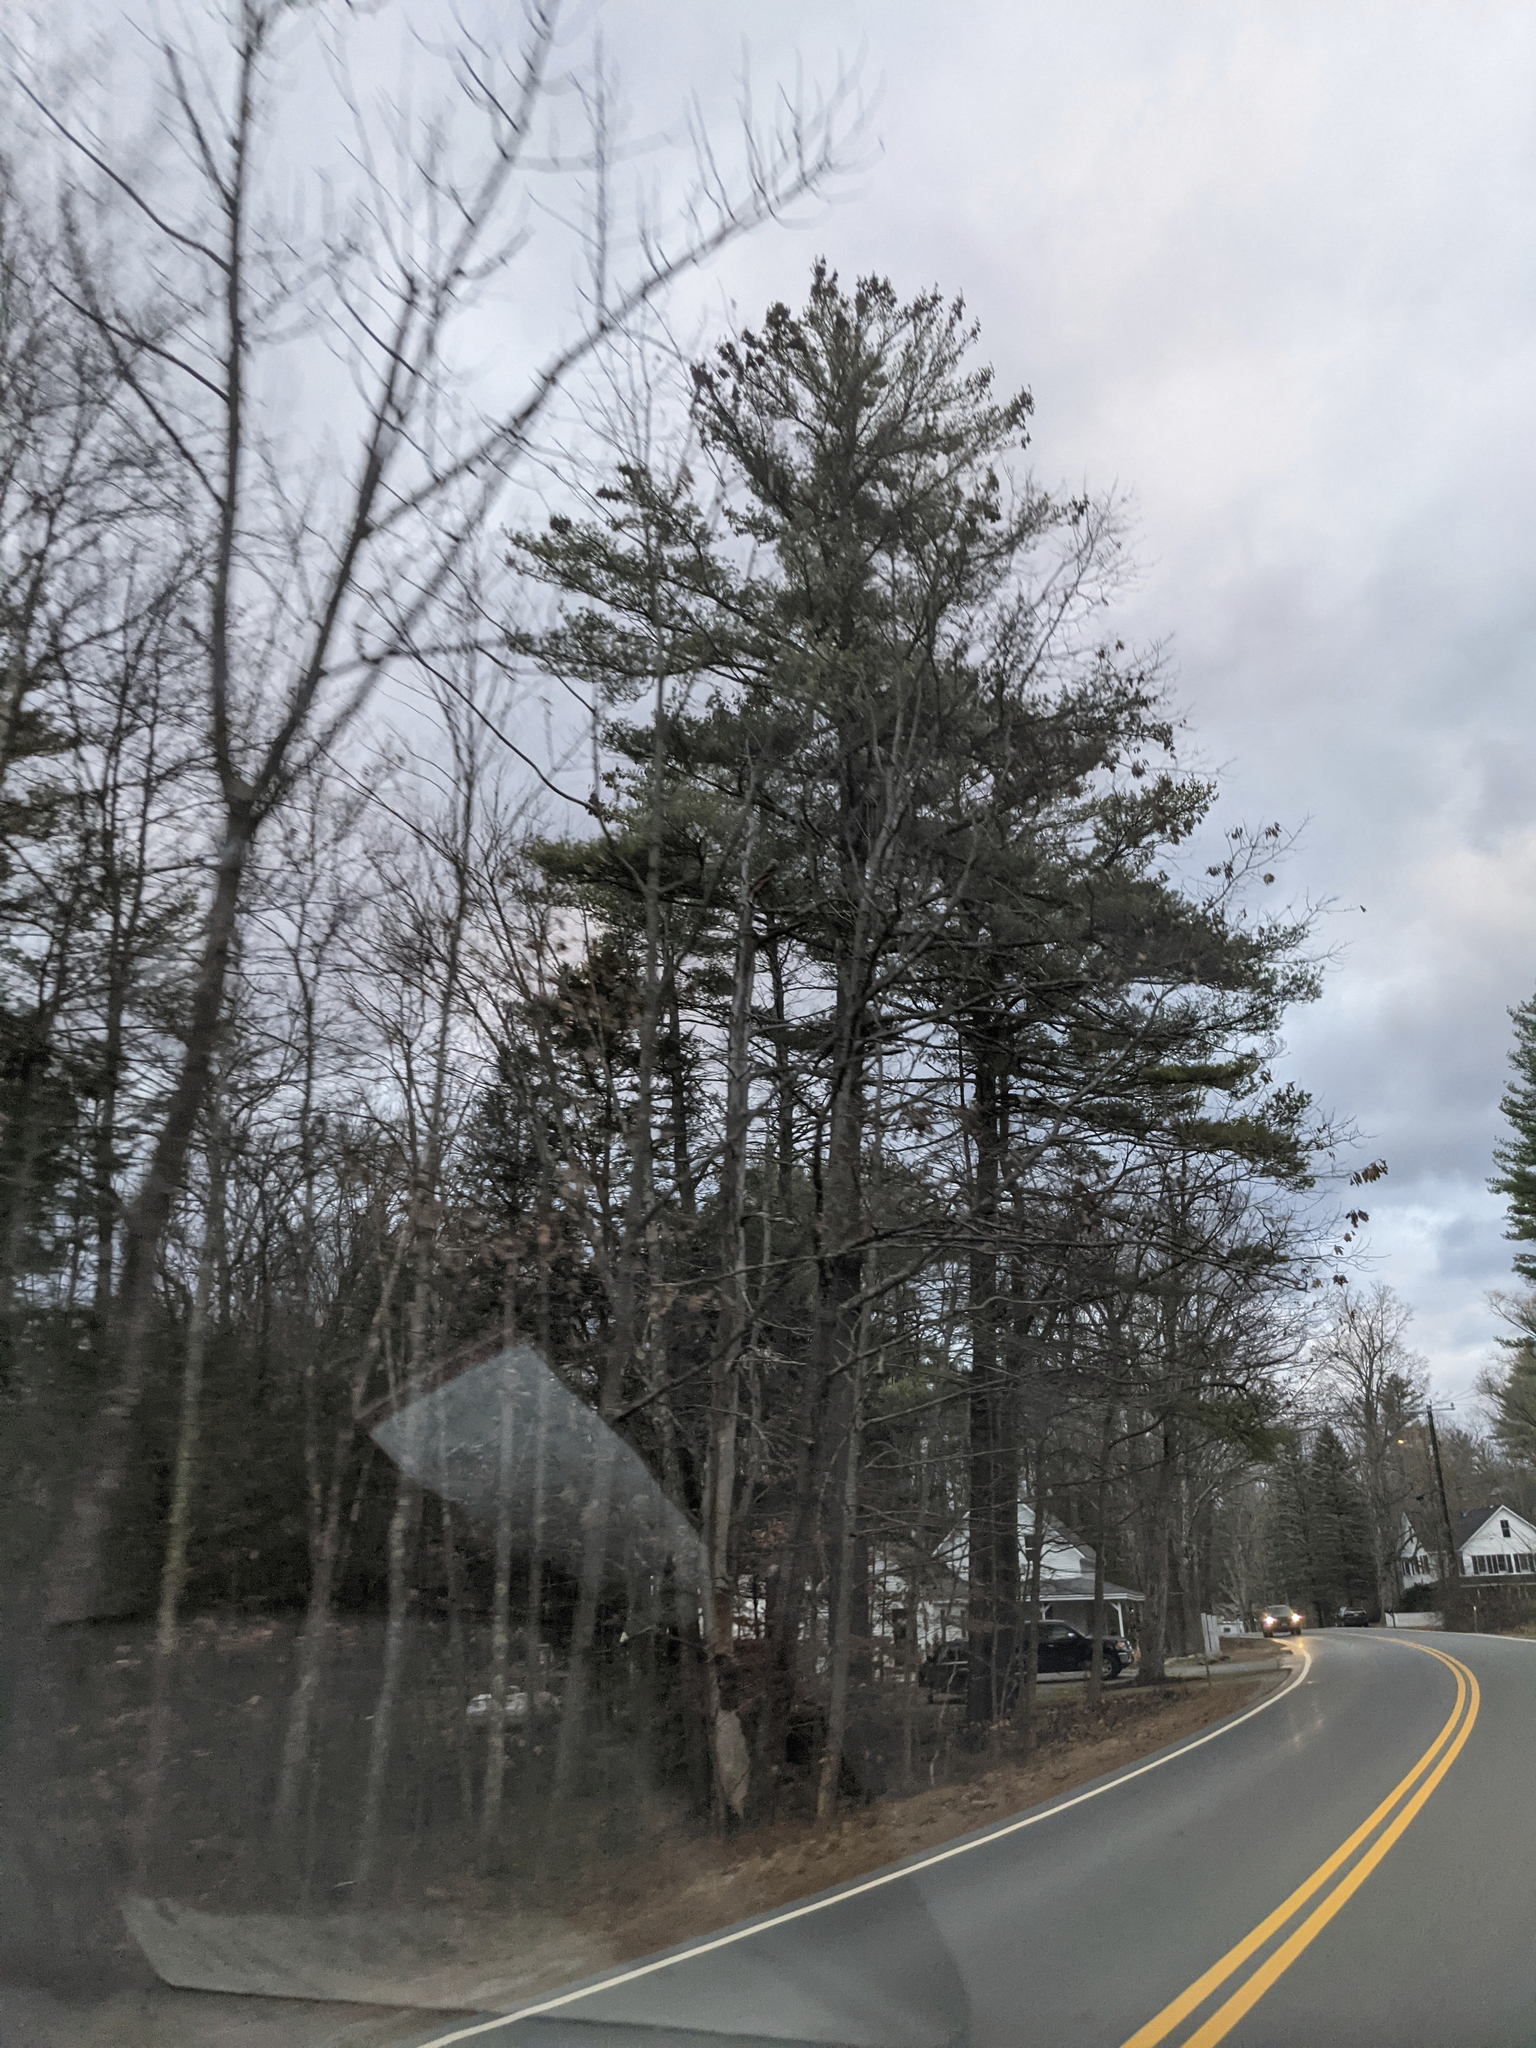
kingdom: Plantae
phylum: Tracheophyta
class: Pinopsida
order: Pinales
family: Pinaceae
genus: Pinus
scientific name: Pinus strobus
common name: Weymouth pine
